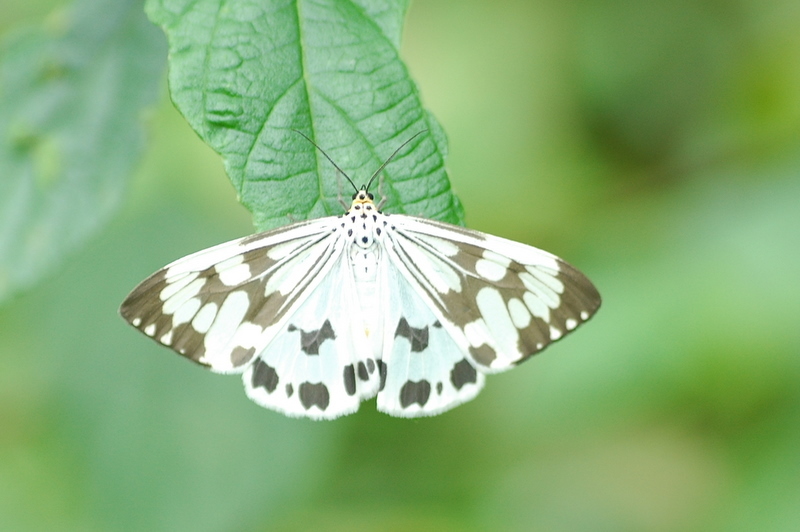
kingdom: Animalia
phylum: Arthropoda
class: Insecta
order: Lepidoptera
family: Erebidae
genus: Nyctemera
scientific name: Nyctemera adversata
